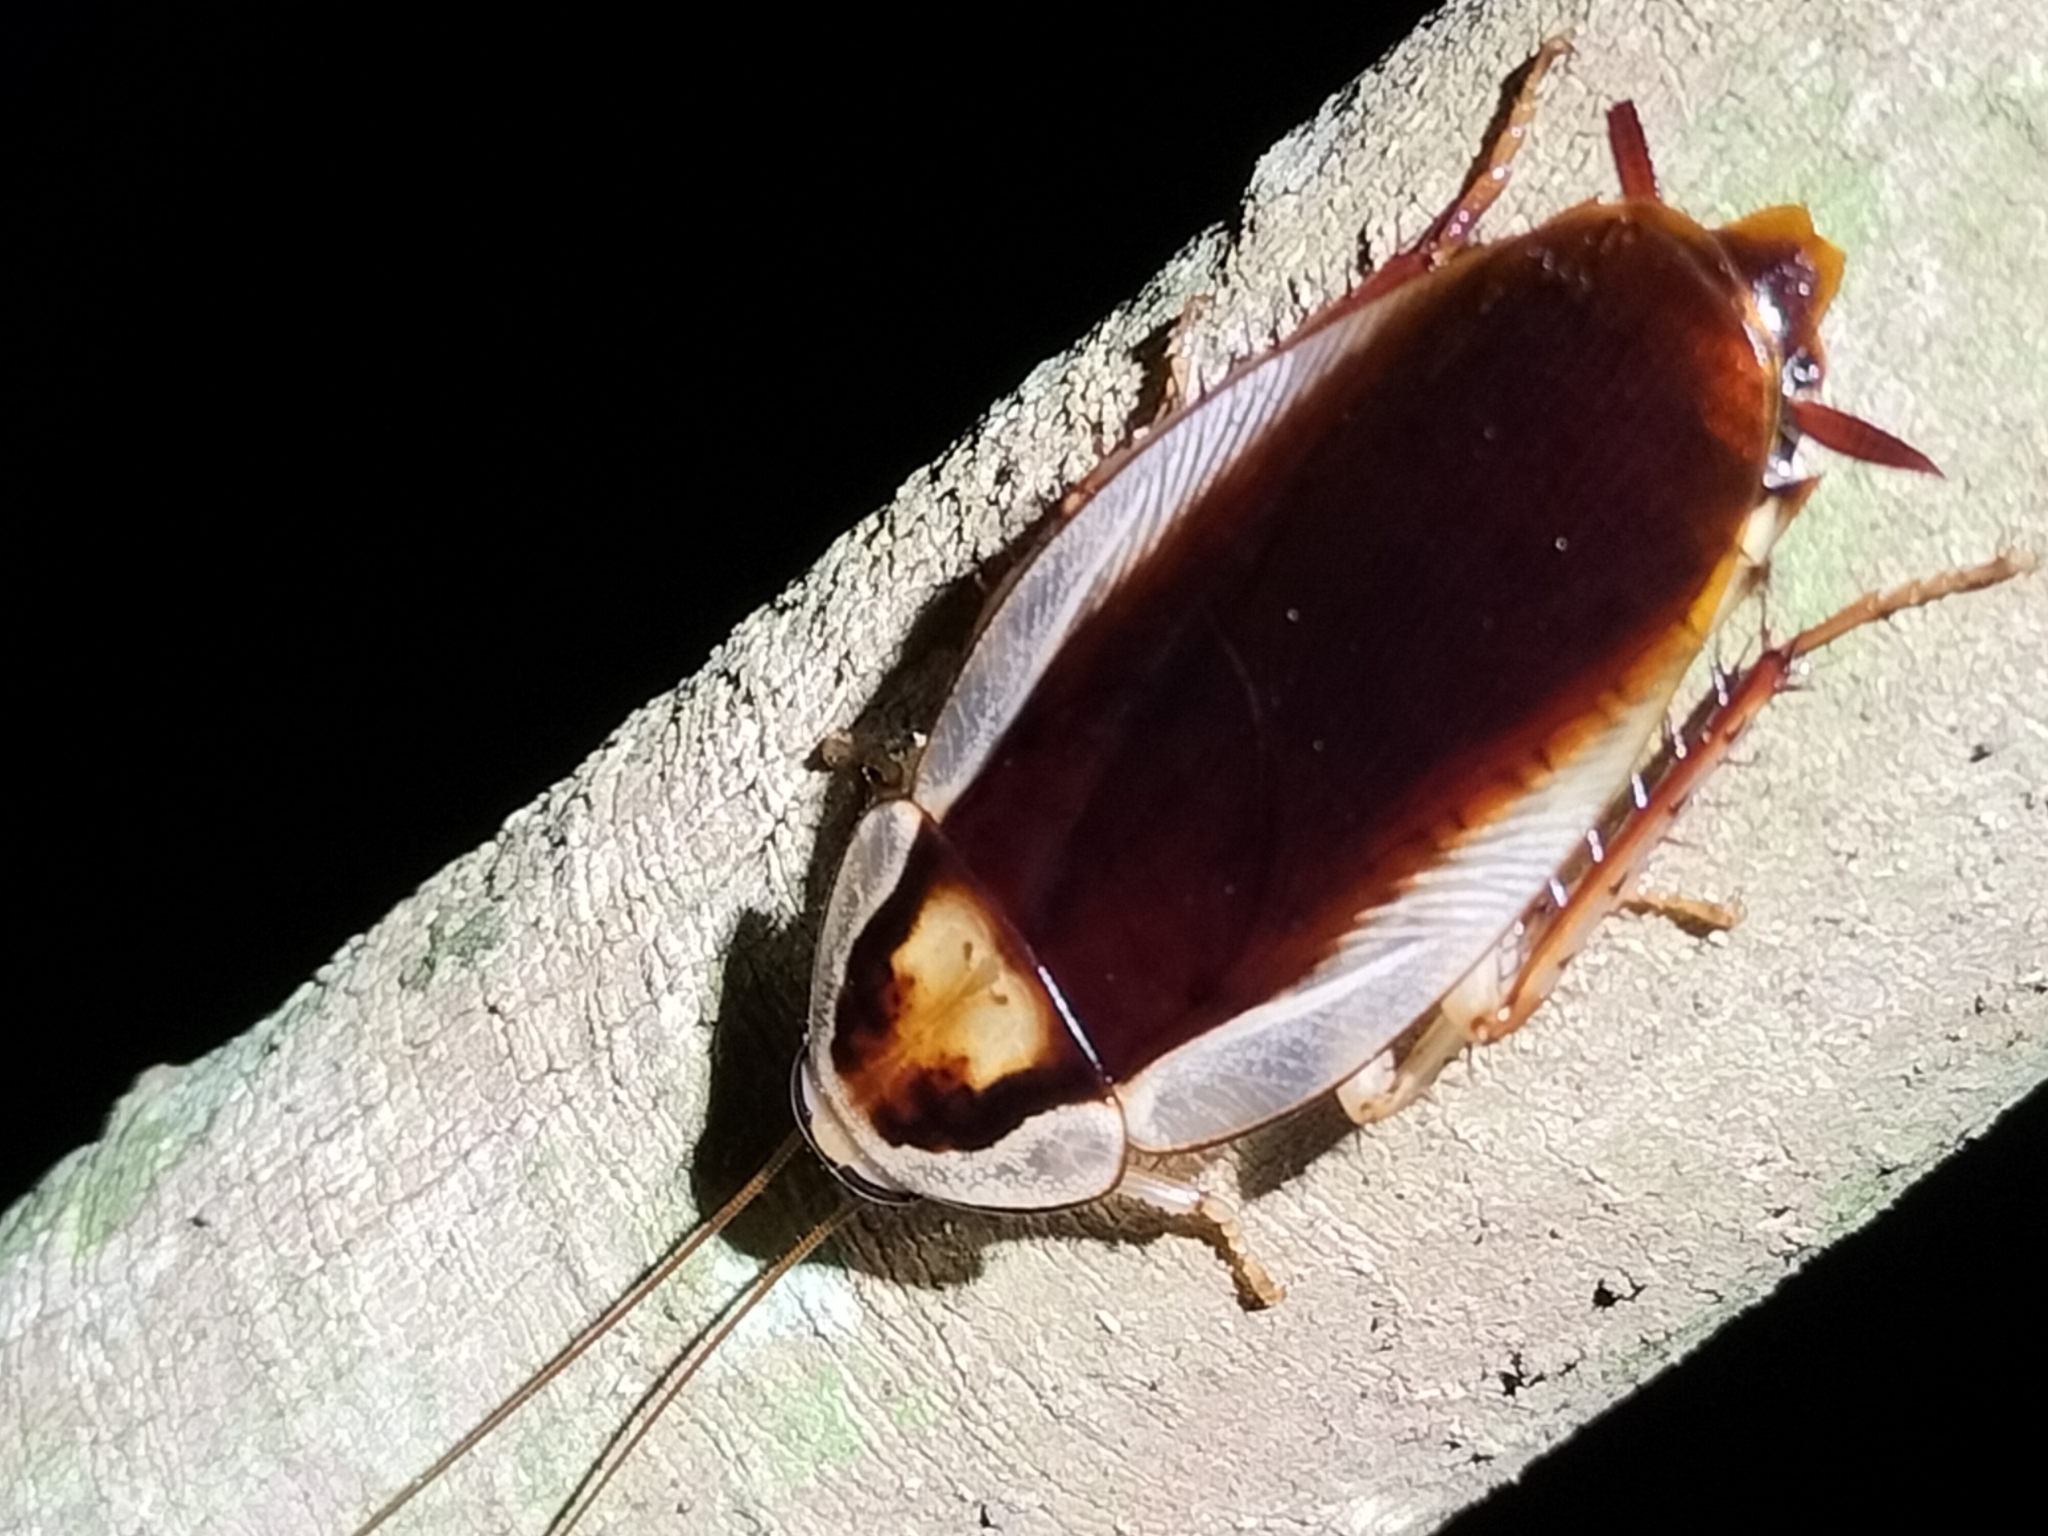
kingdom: Animalia
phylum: Arthropoda
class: Insecta
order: Blattodea
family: Blattidae
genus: Methana
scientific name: Methana athertonensis
